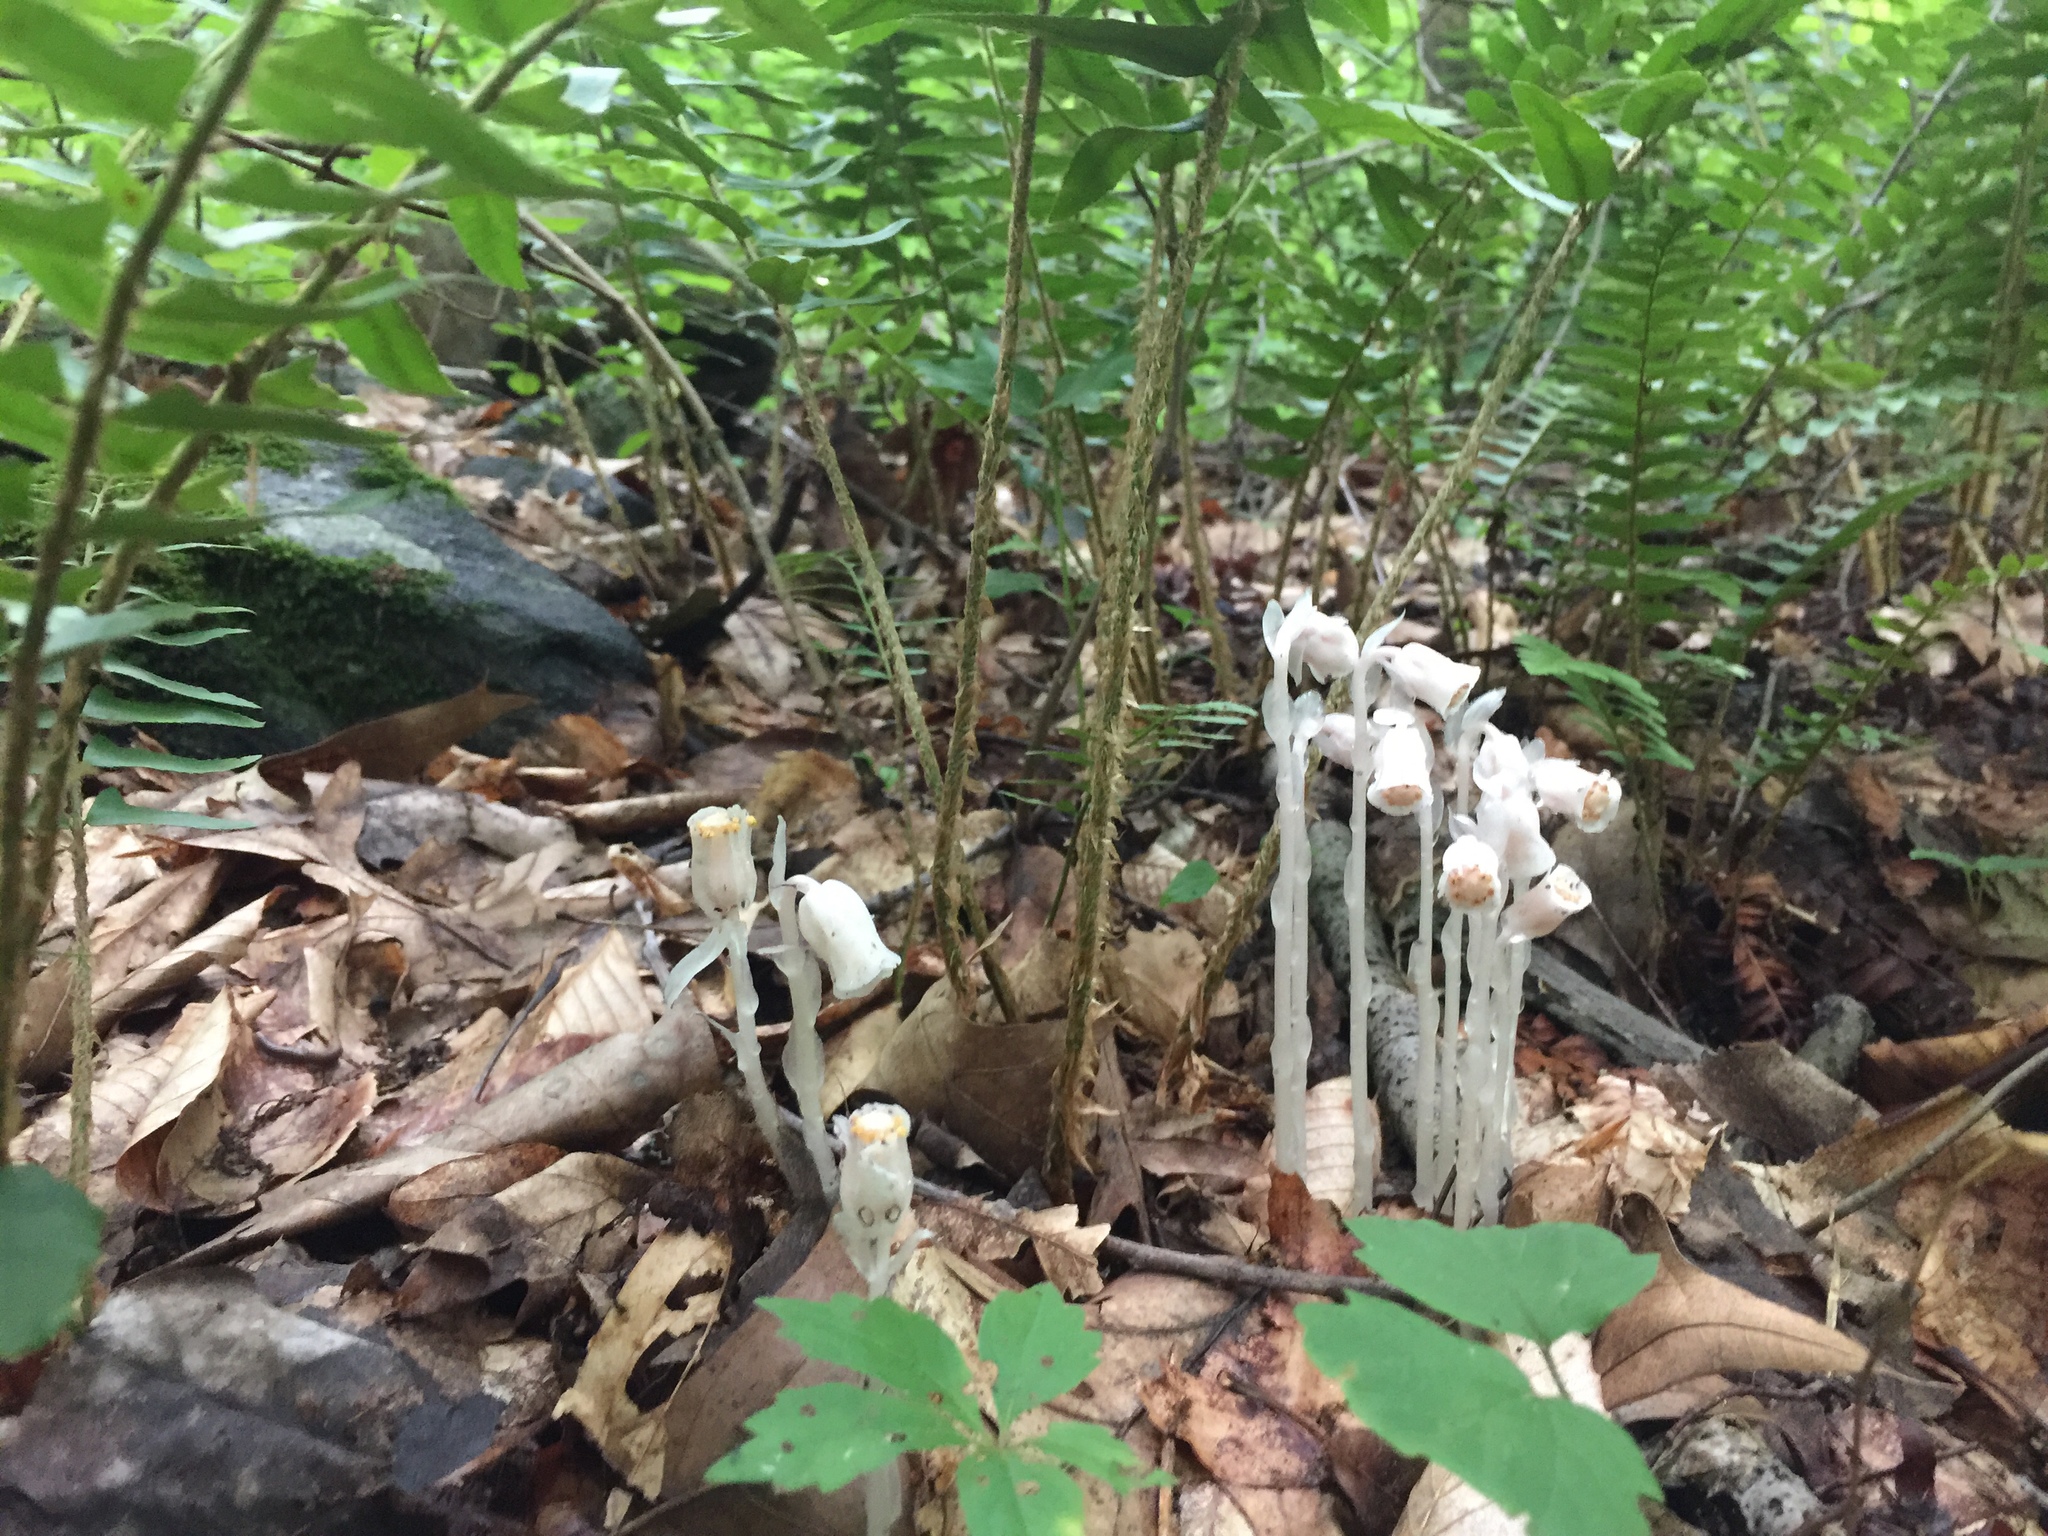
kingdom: Plantae
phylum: Tracheophyta
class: Magnoliopsida
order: Ericales
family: Ericaceae
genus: Monotropa
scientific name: Monotropa uniflora
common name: Convulsion root
